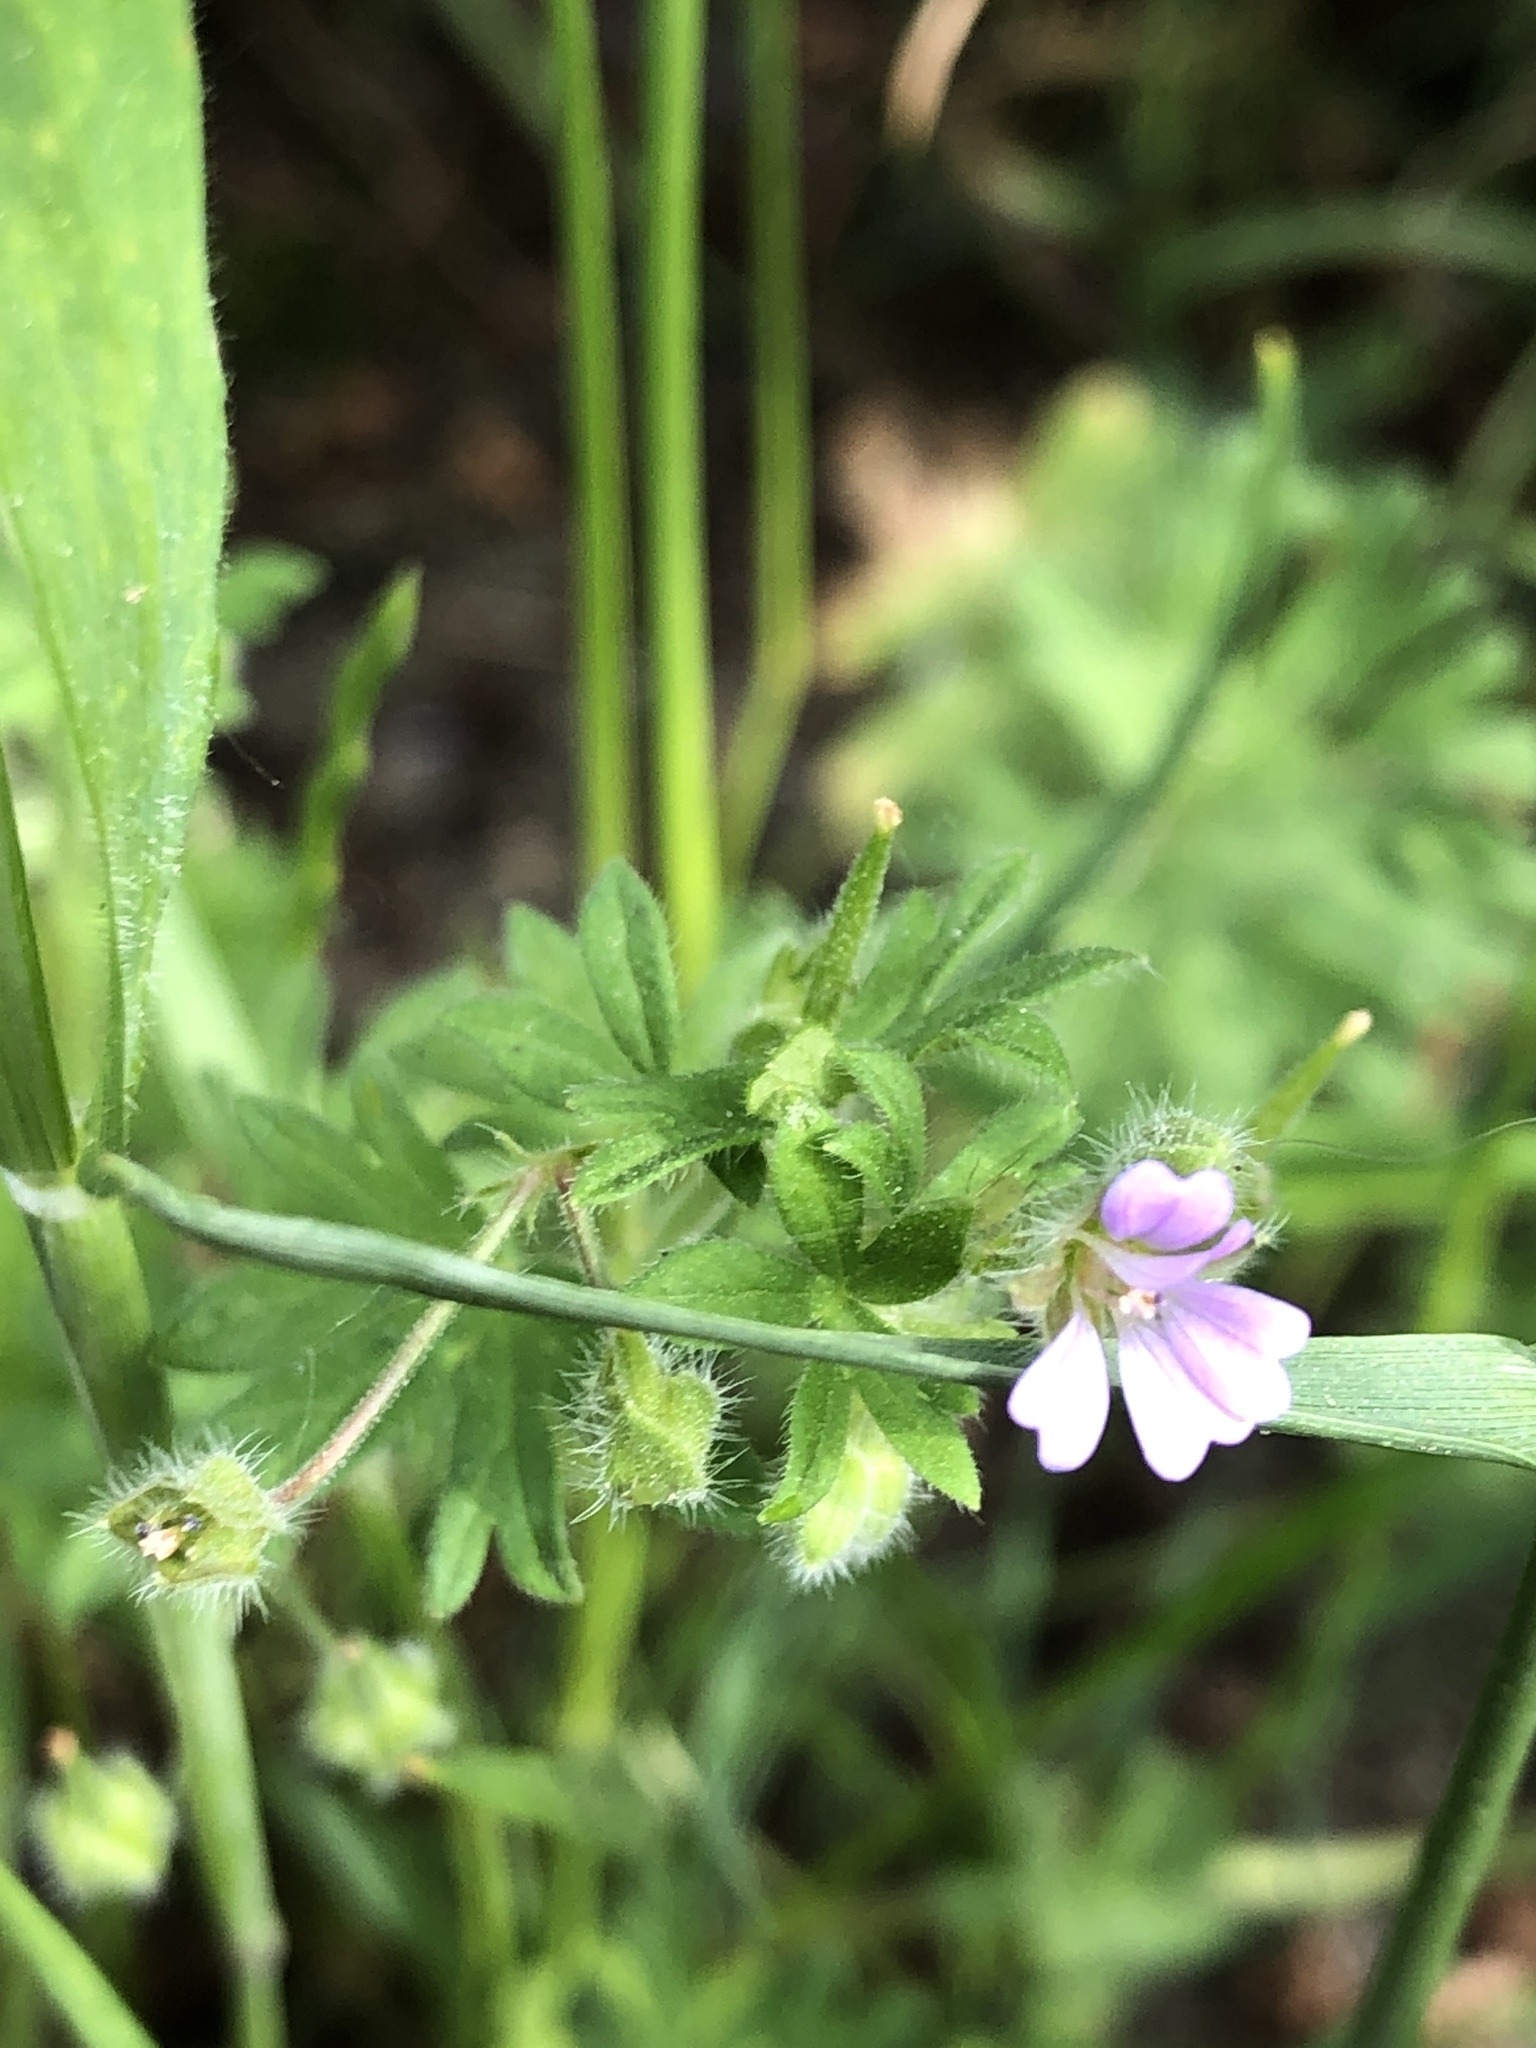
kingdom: Plantae
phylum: Tracheophyta
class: Magnoliopsida
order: Geraniales
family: Geraniaceae
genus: Geranium
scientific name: Geranium pusillum
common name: Small geranium
